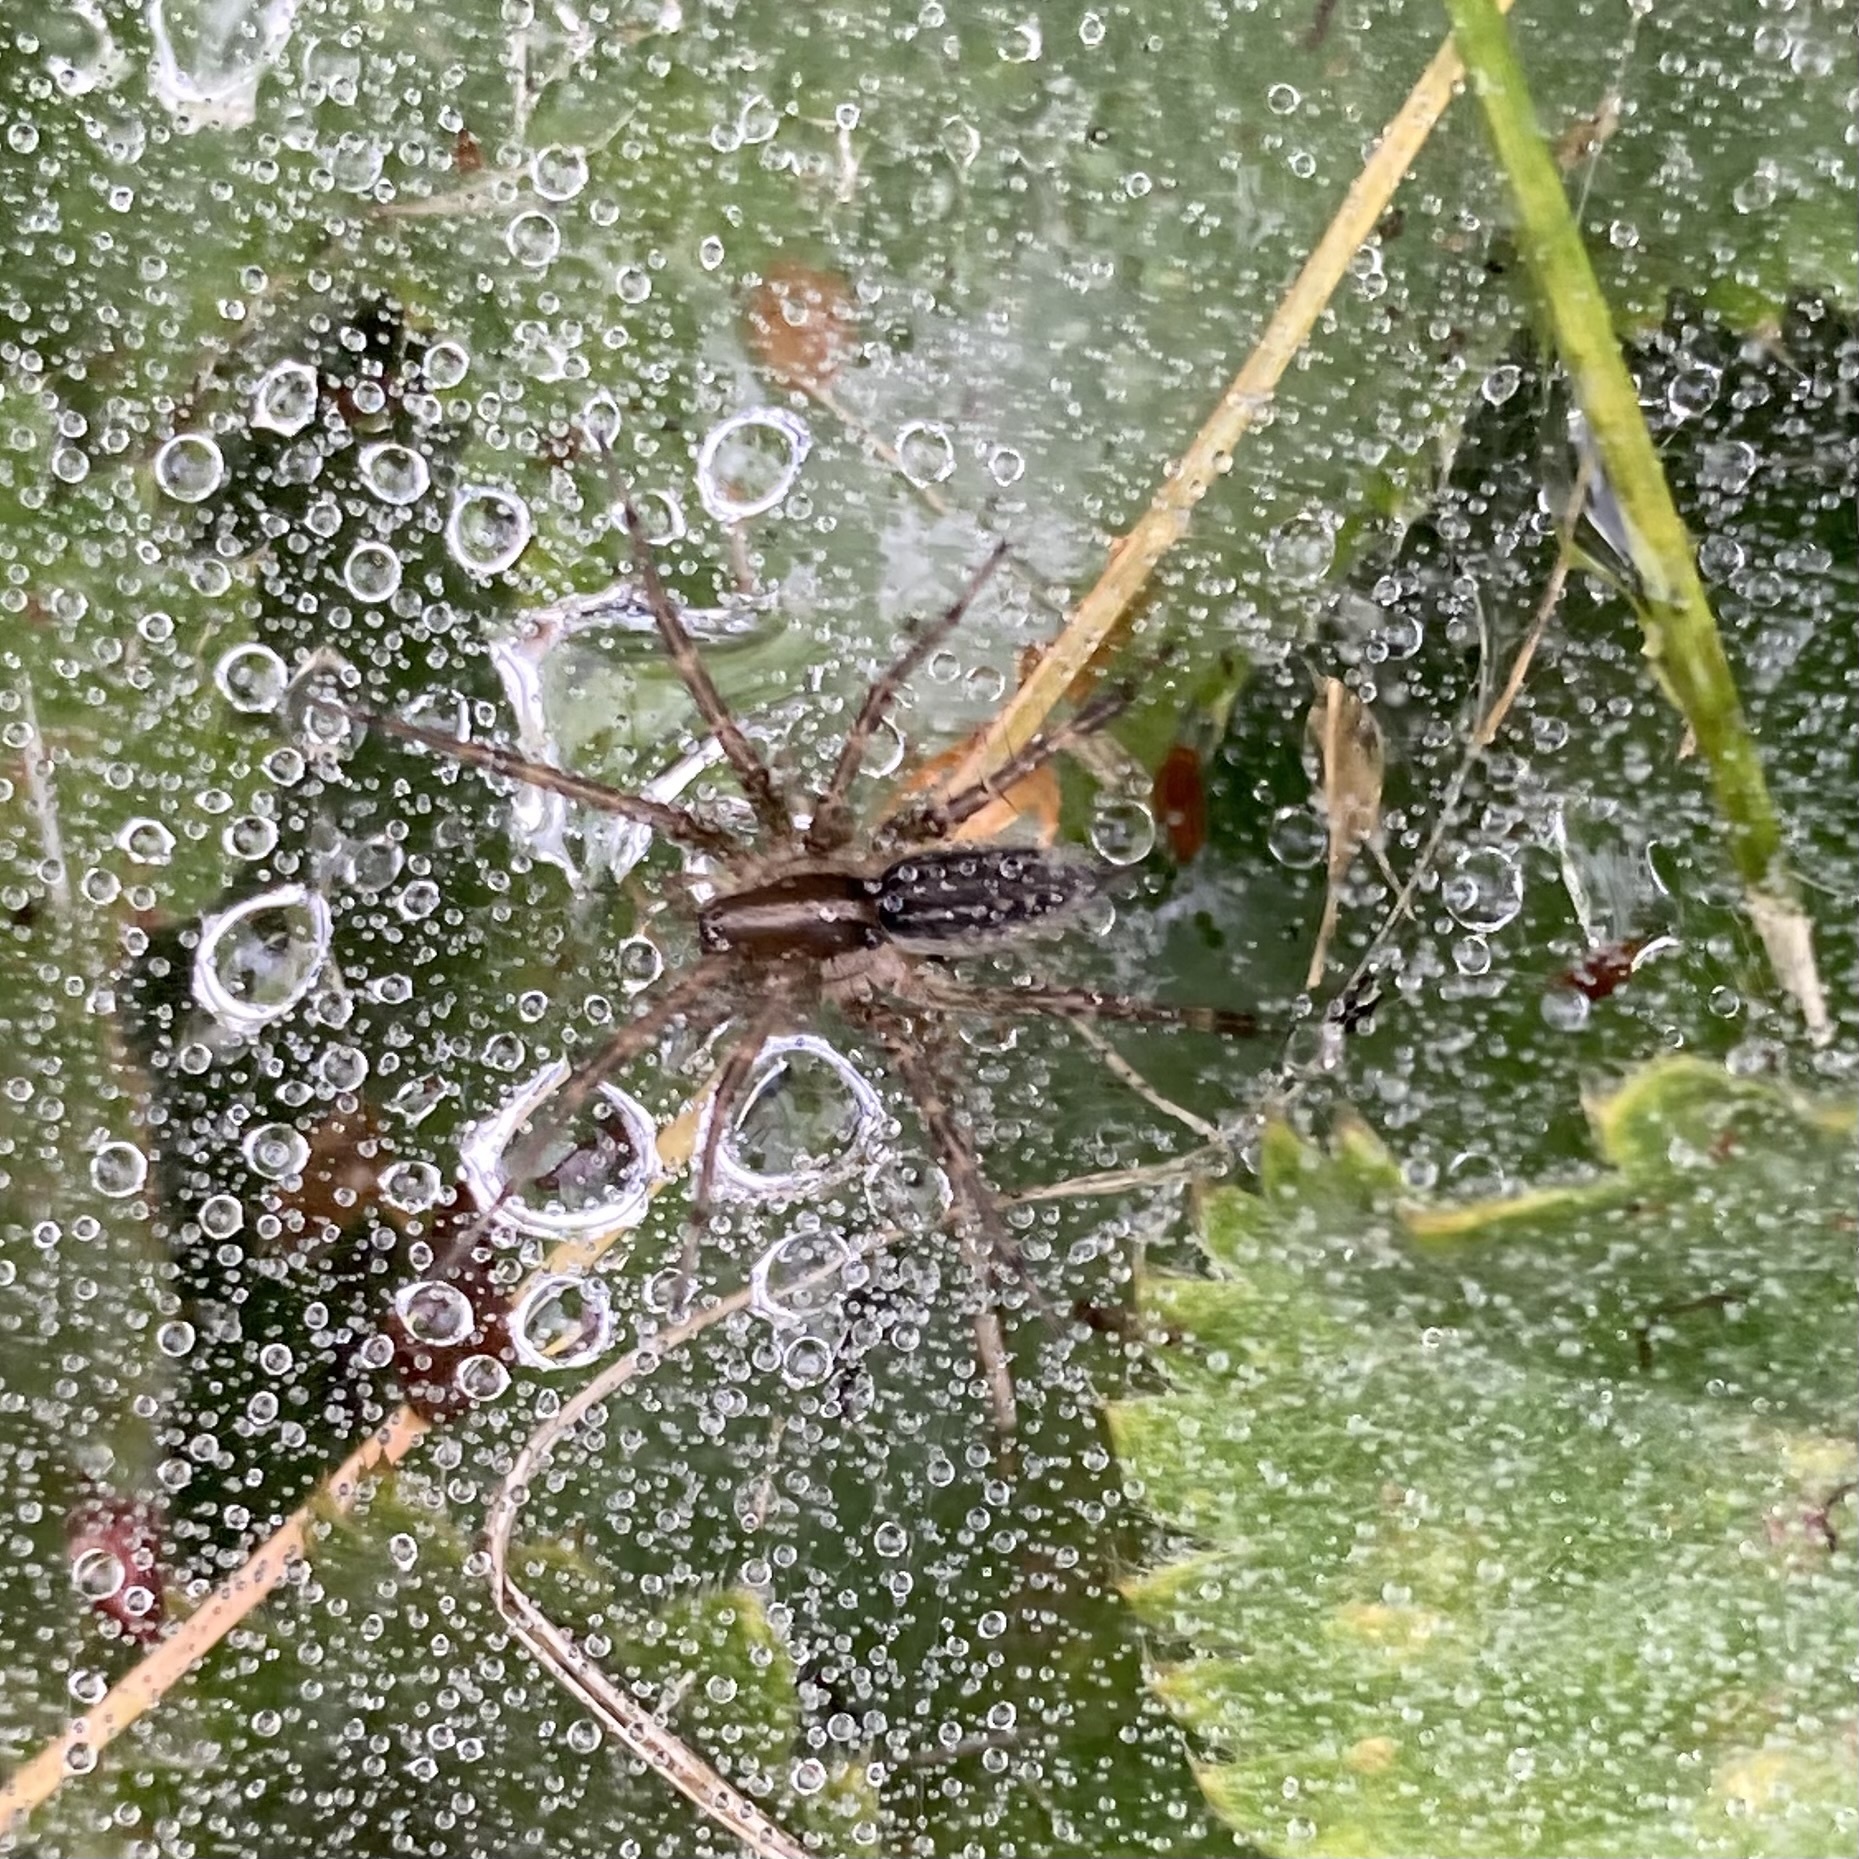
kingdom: Animalia
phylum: Arthropoda
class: Arachnida
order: Araneae
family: Agelenidae
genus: Agelenopsis
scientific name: Agelenopsis
